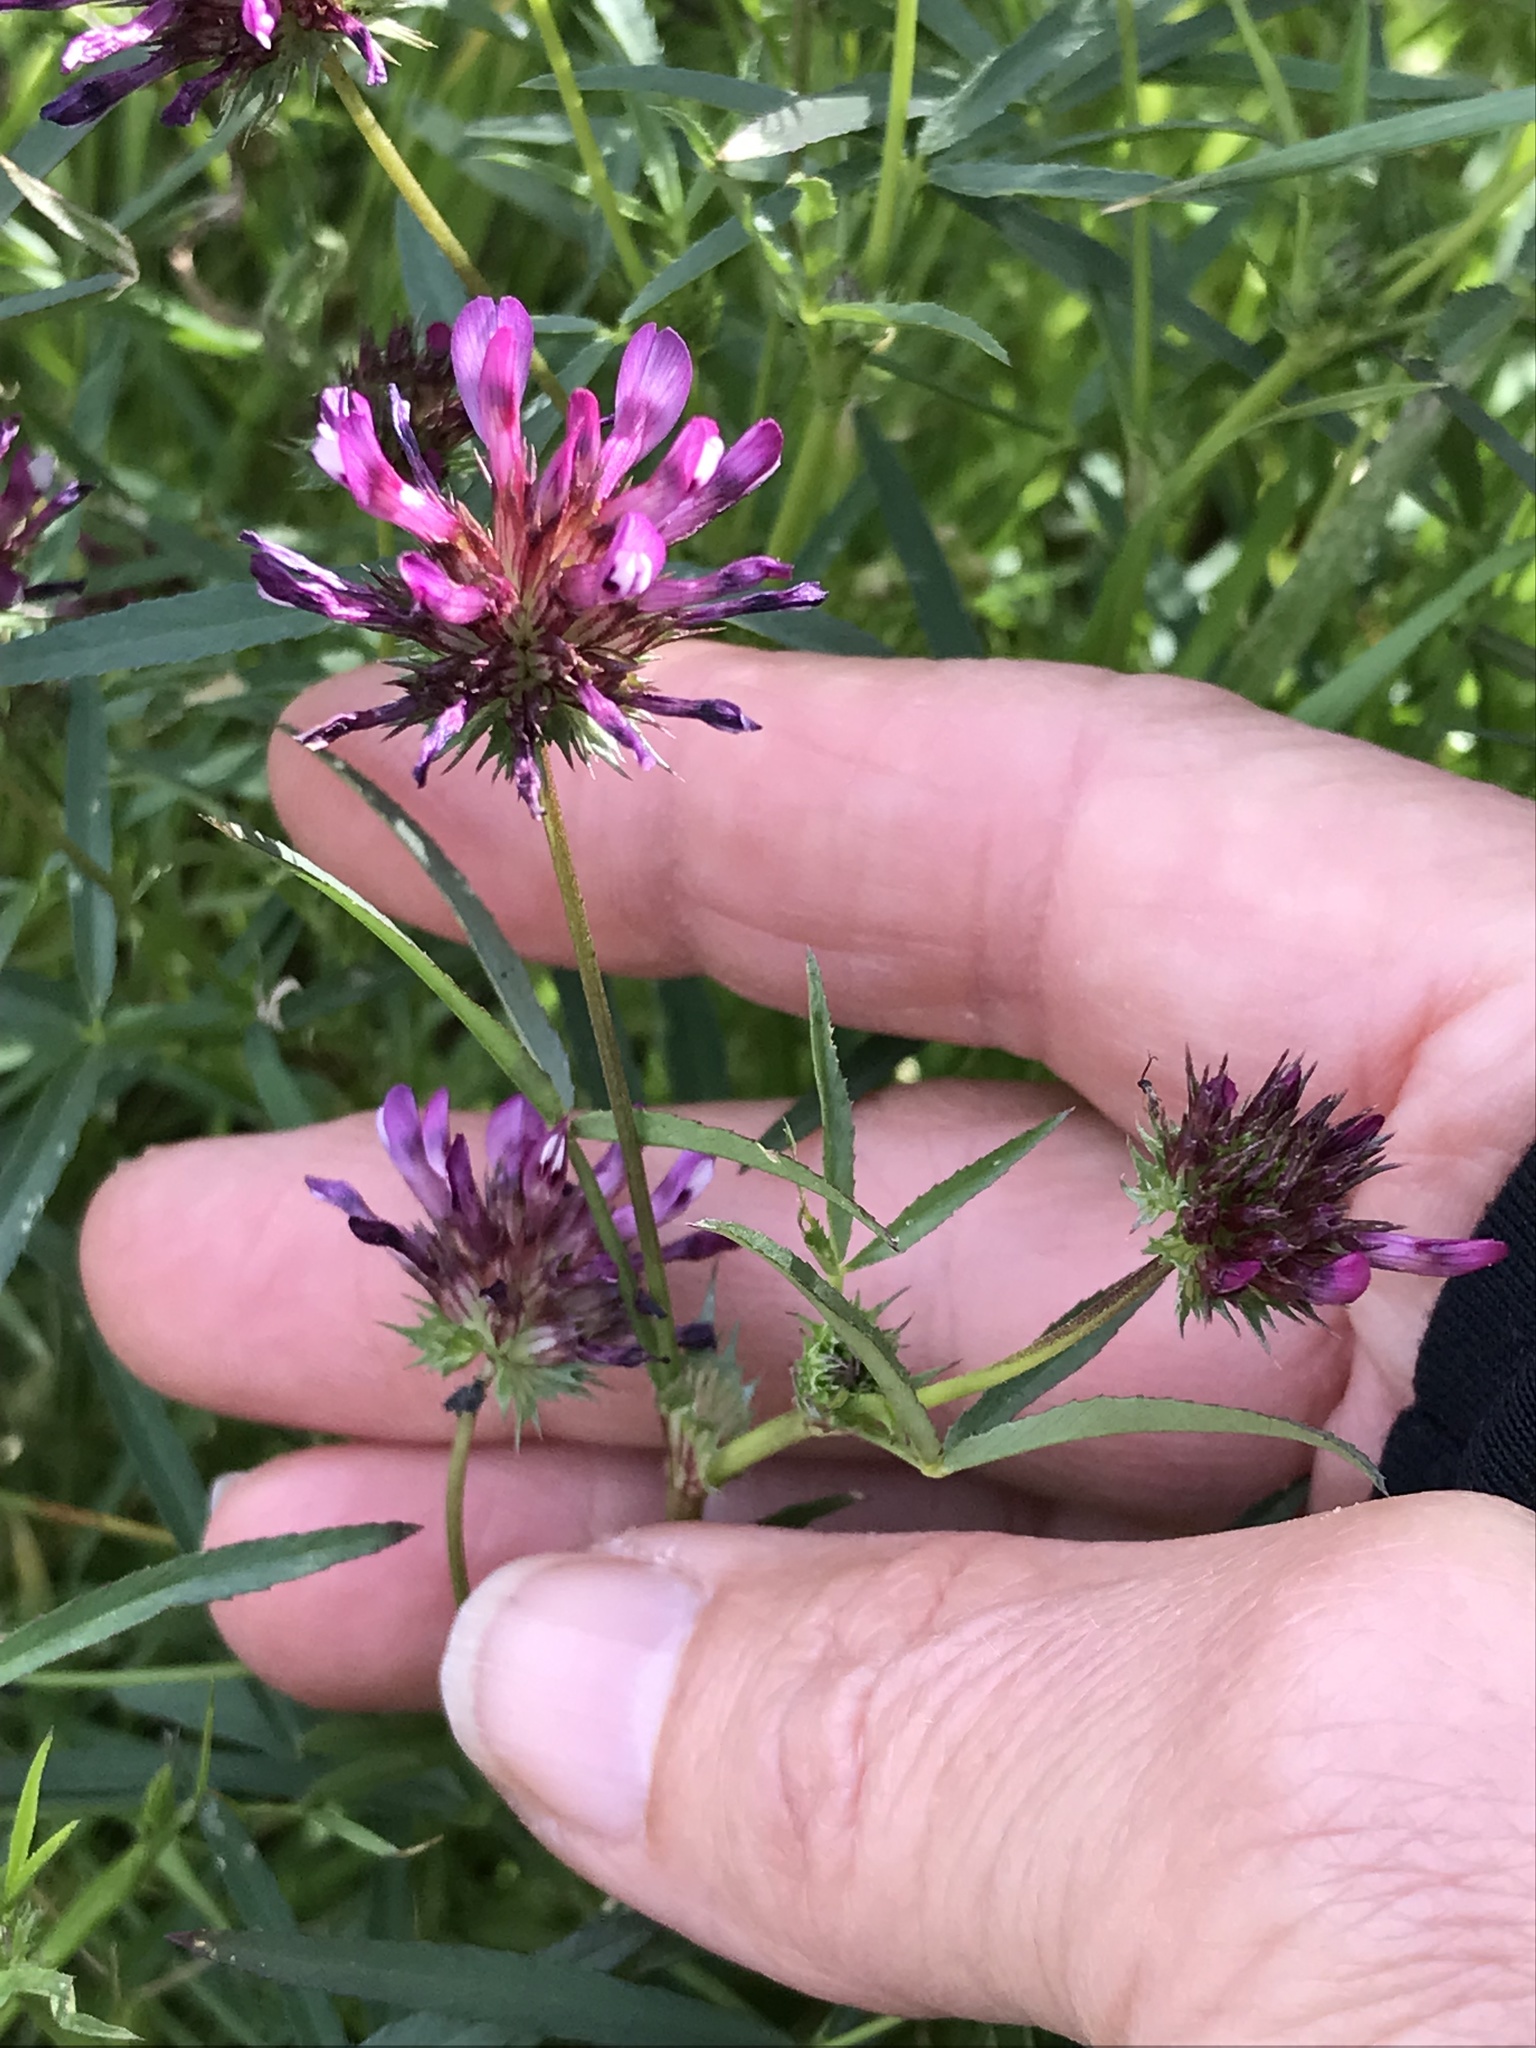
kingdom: Plantae
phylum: Tracheophyta
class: Magnoliopsida
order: Fabales
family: Fabaceae
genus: Trifolium
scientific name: Trifolium willdenovii
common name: Tomcat clover
